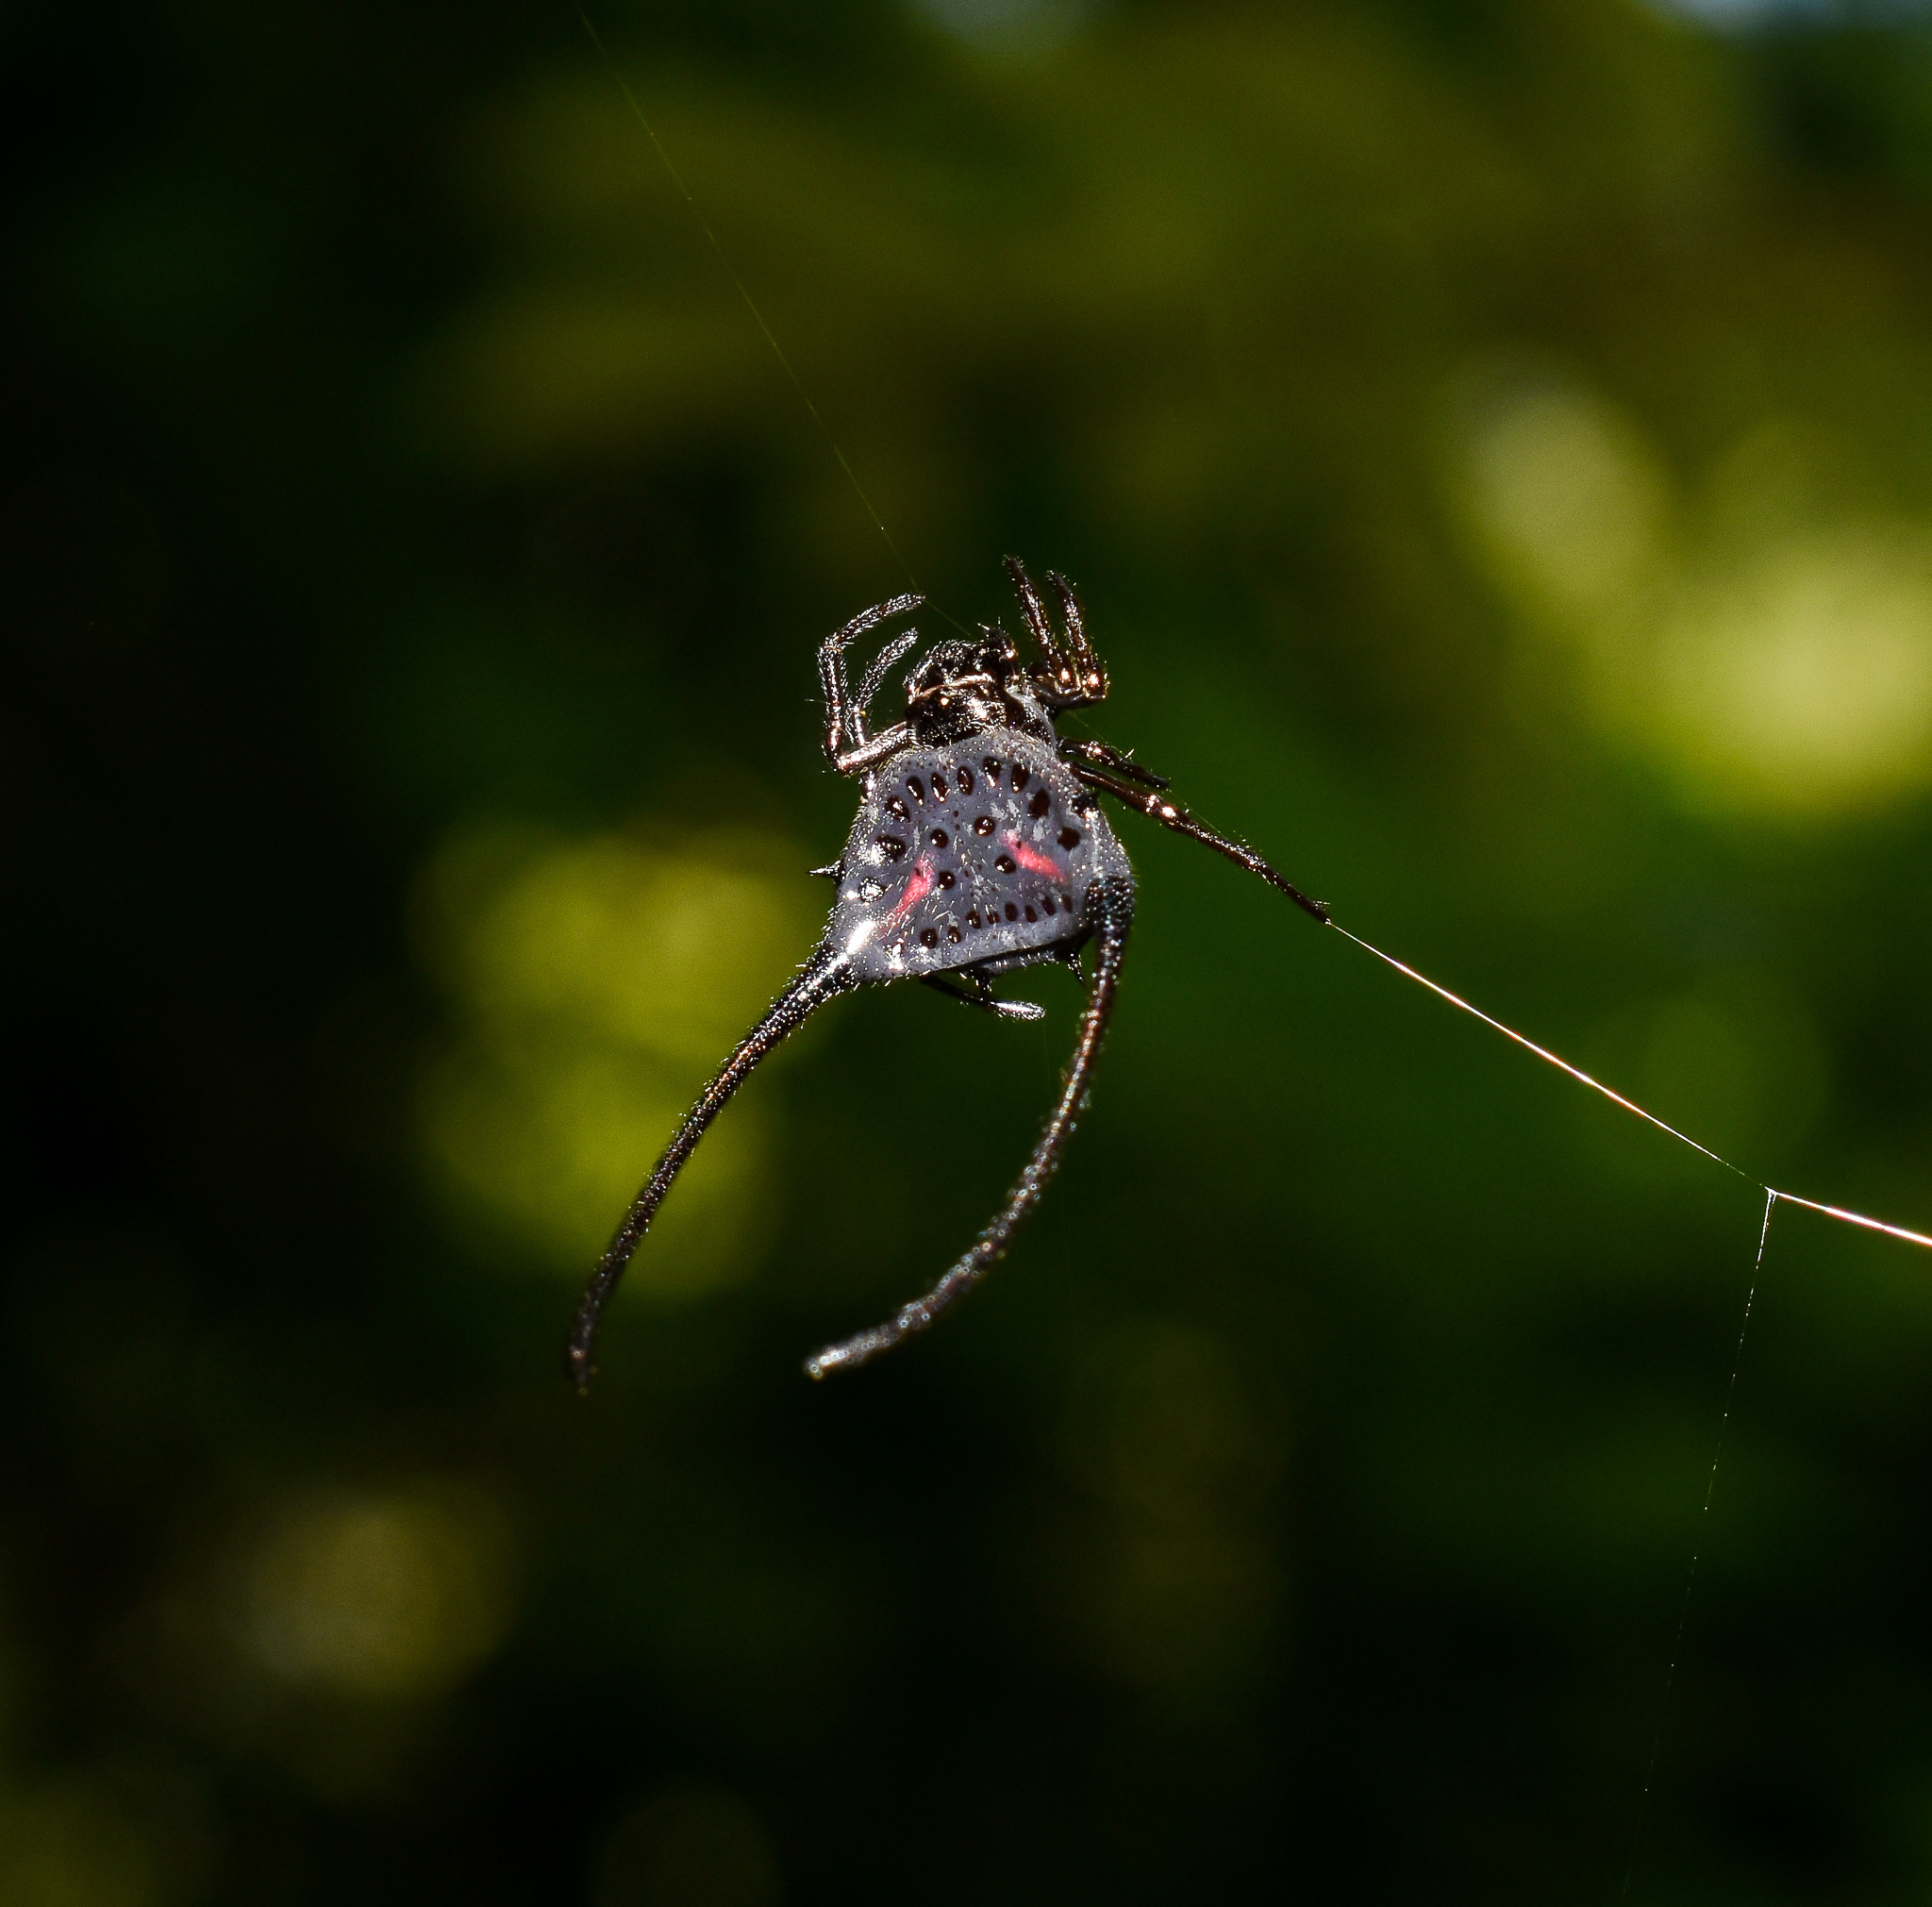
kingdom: Animalia
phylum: Arthropoda
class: Arachnida
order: Araneae
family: Araneidae
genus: Macracantha
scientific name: Macracantha arcuata
